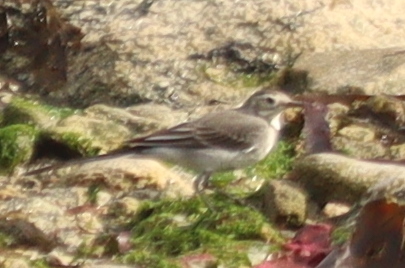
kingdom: Animalia
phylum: Chordata
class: Aves
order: Passeriformes
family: Motacillidae
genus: Motacilla
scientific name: Motacilla alba
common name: White wagtail
